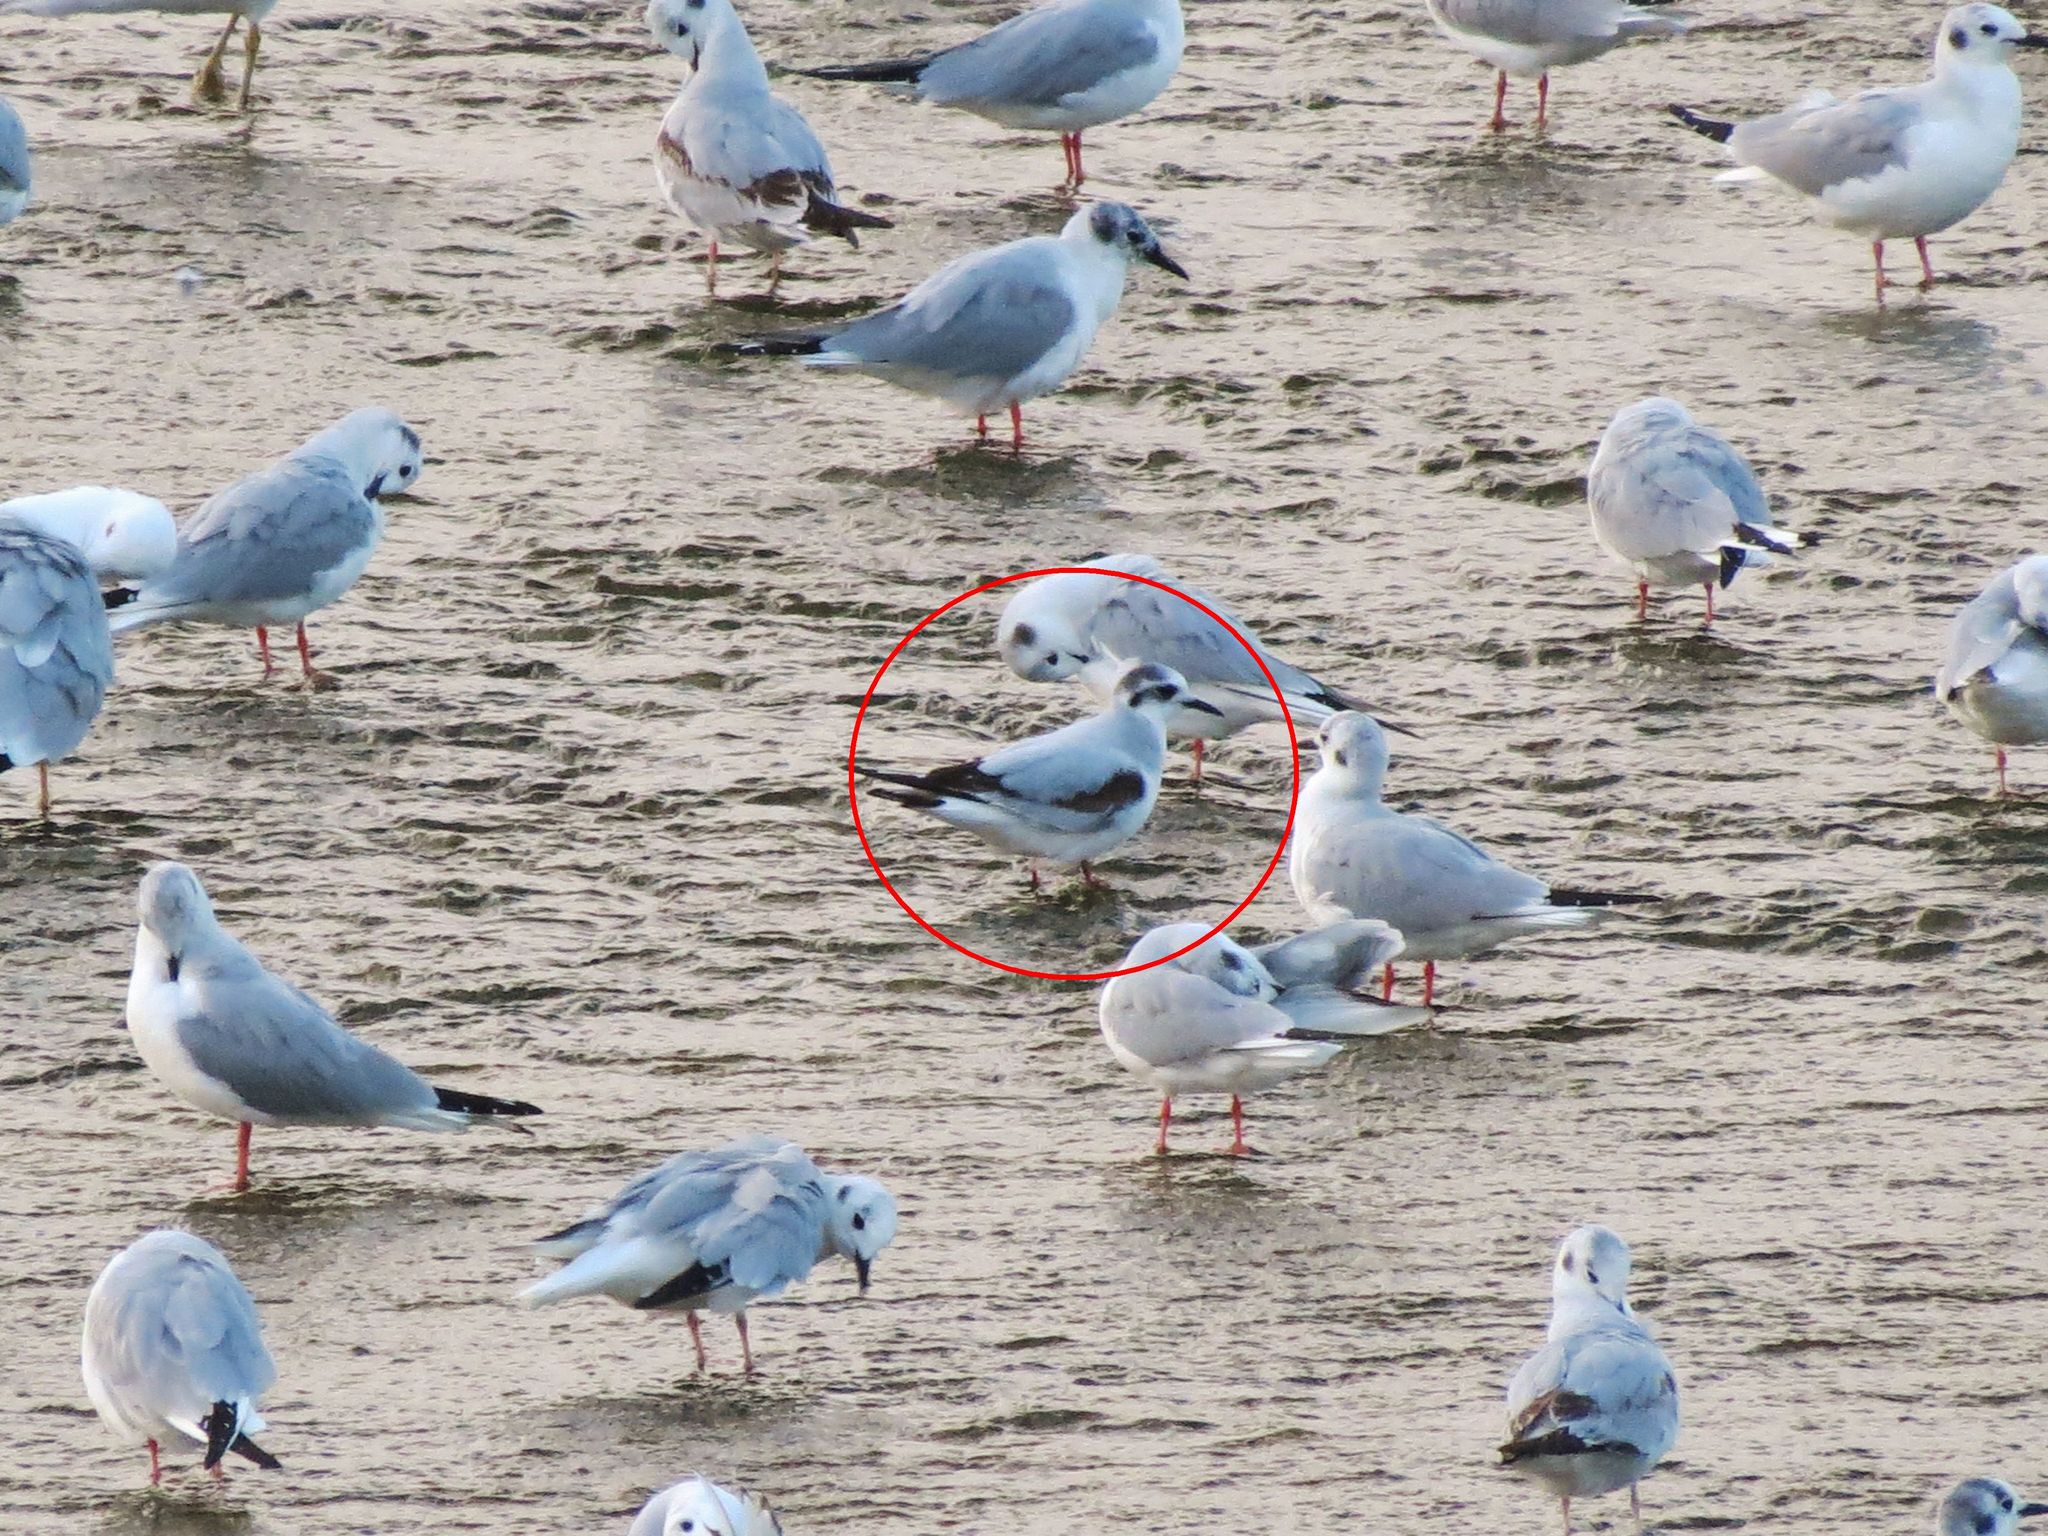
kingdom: Animalia
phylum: Chordata
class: Aves
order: Charadriiformes
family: Laridae
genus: Hydrocoloeus
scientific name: Hydrocoloeus minutus
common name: Little gull
